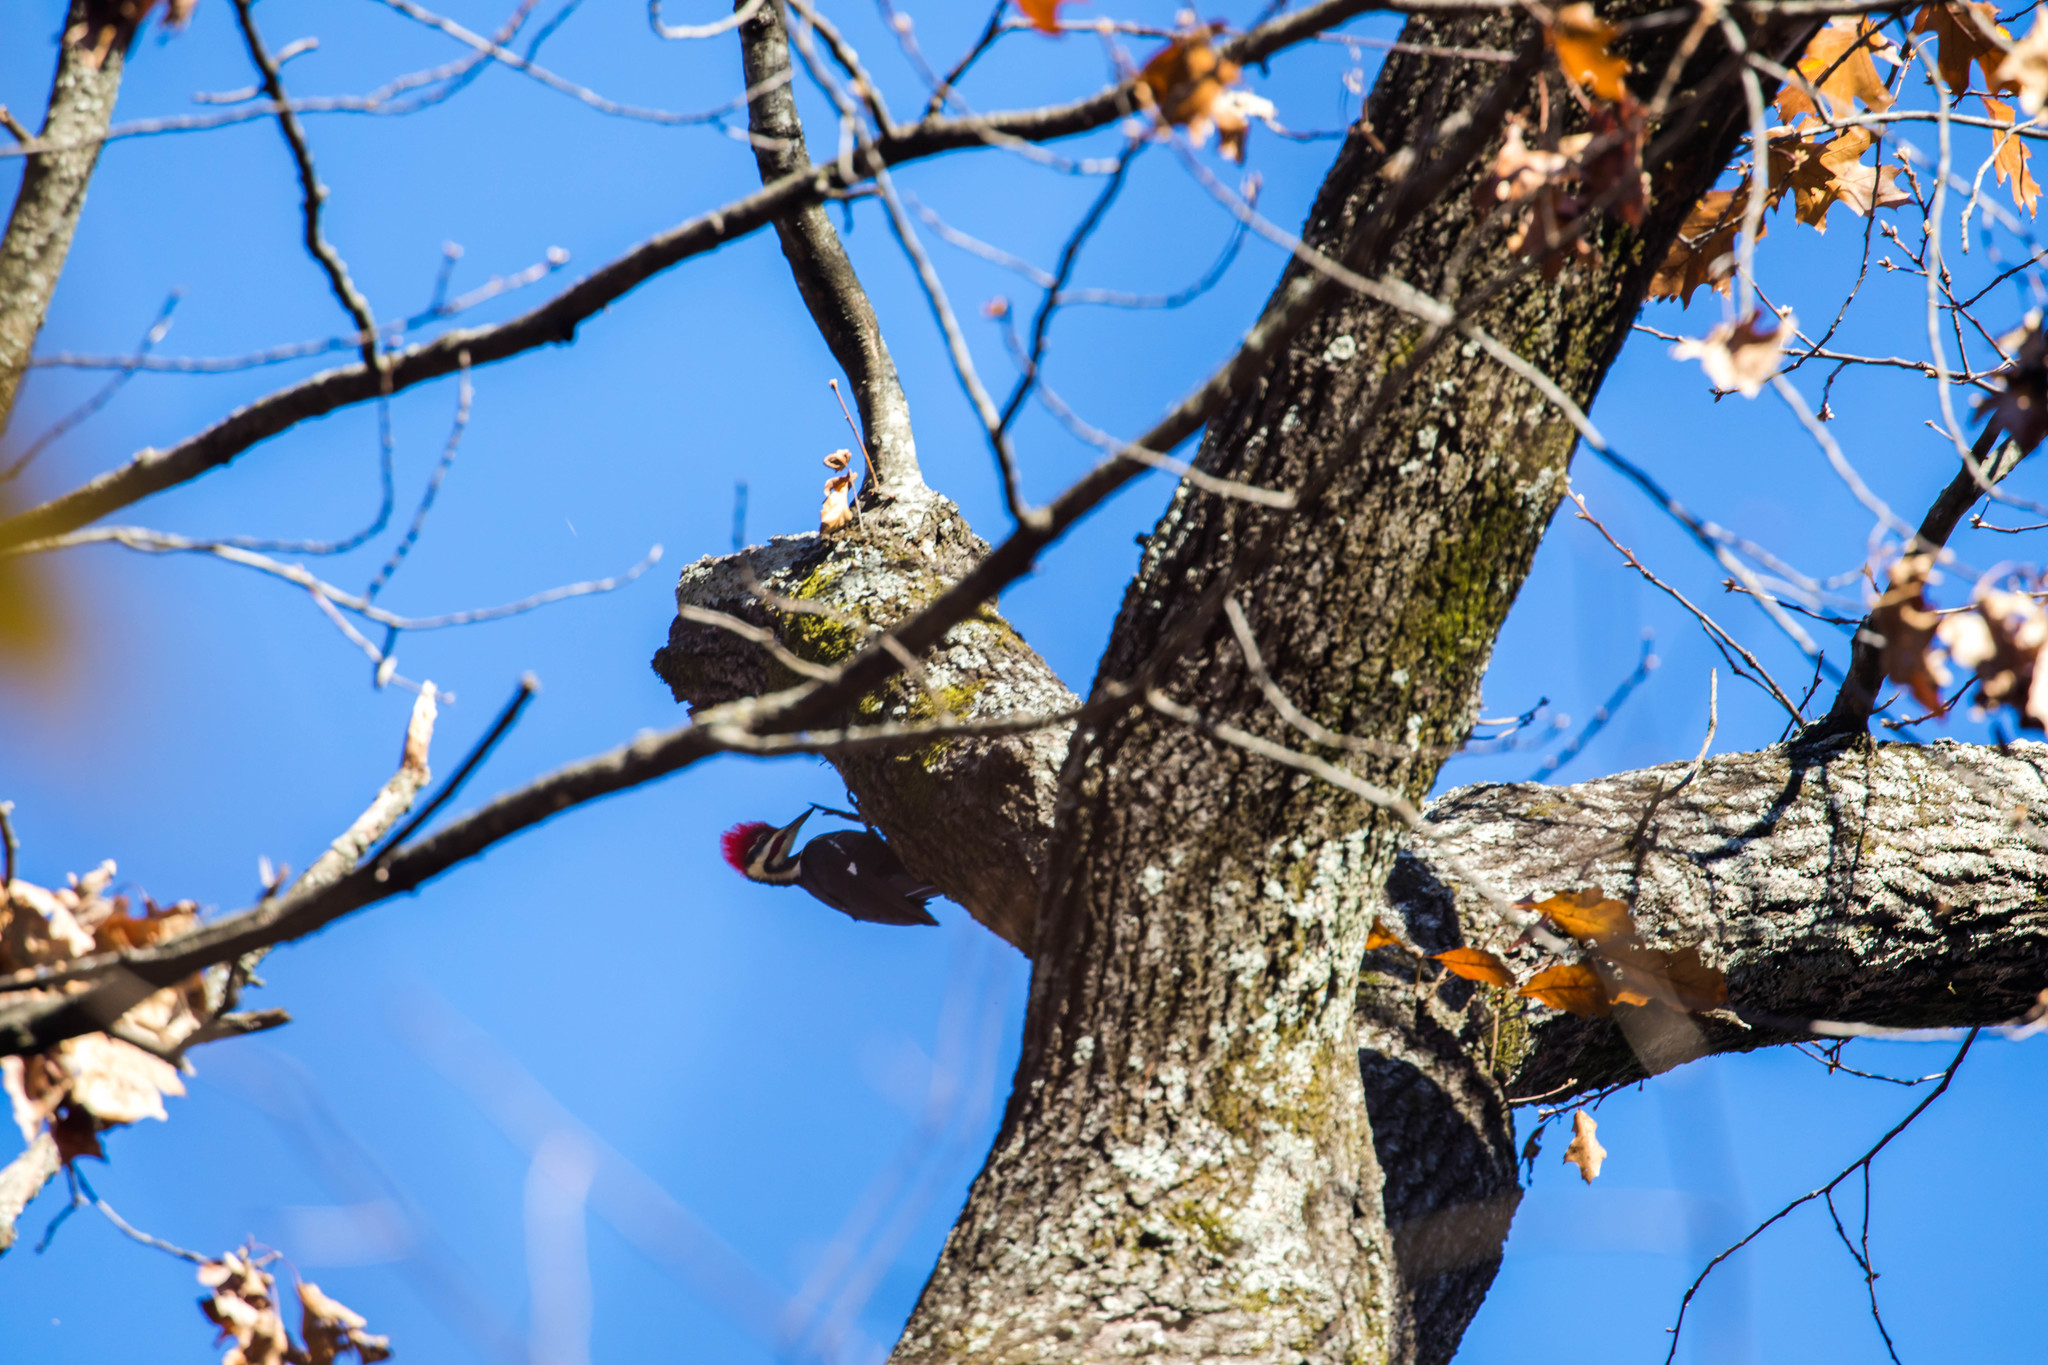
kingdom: Animalia
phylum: Chordata
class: Aves
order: Piciformes
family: Picidae
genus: Dryocopus
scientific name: Dryocopus pileatus
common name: Pileated woodpecker
